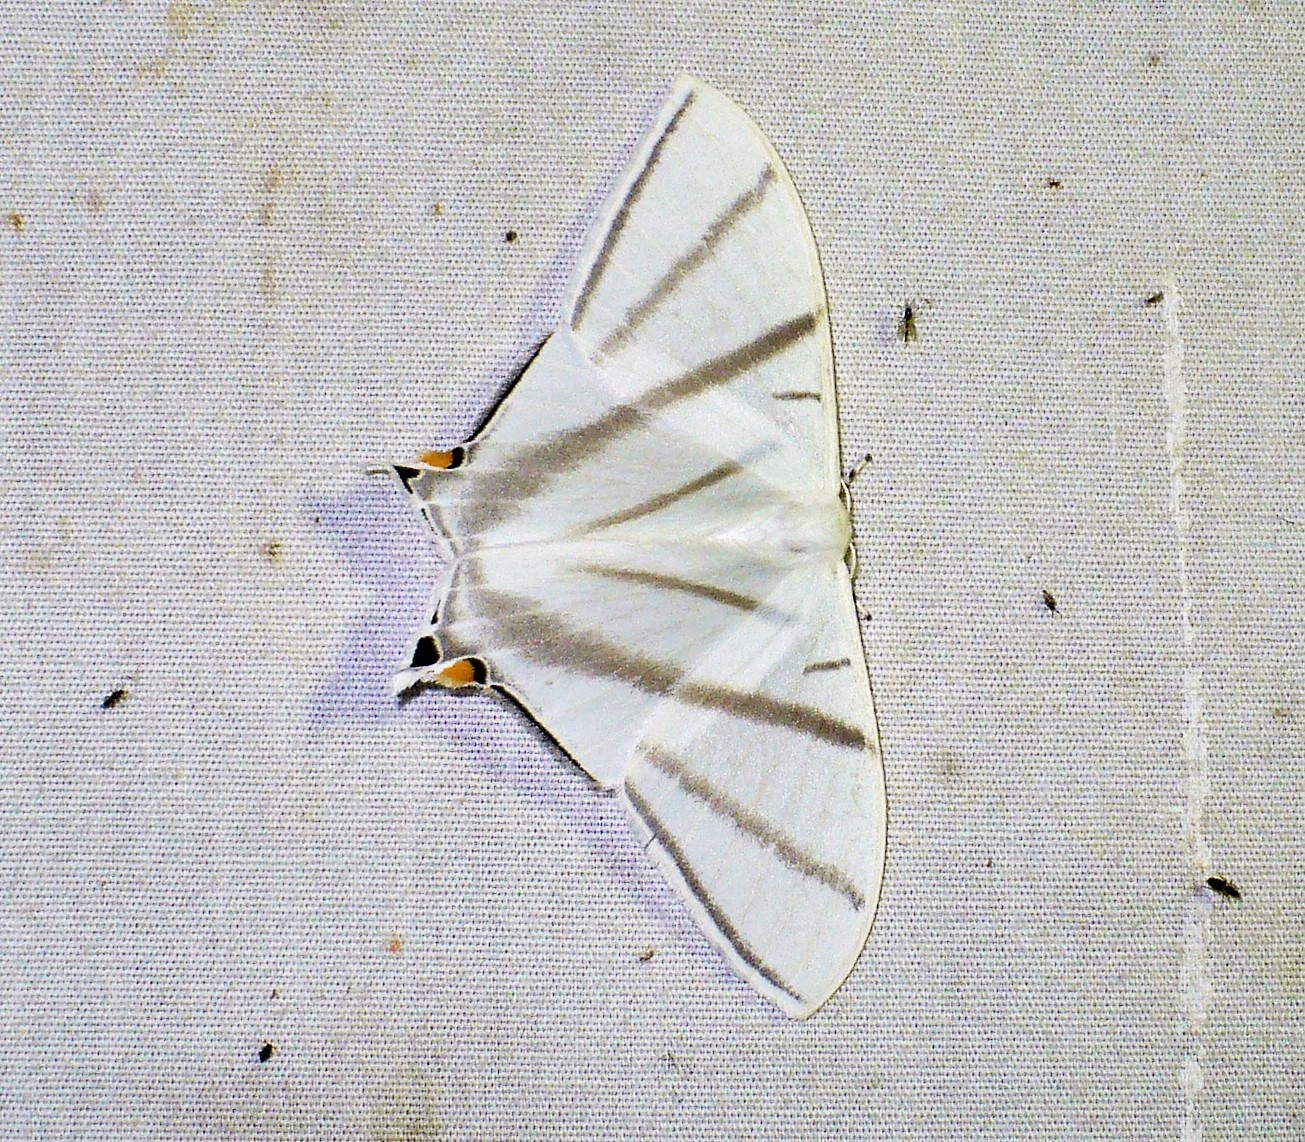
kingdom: Animalia
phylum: Arthropoda
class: Insecta
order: Lepidoptera
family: Saturniidae
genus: Therinia
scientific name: Therinia transversaria
